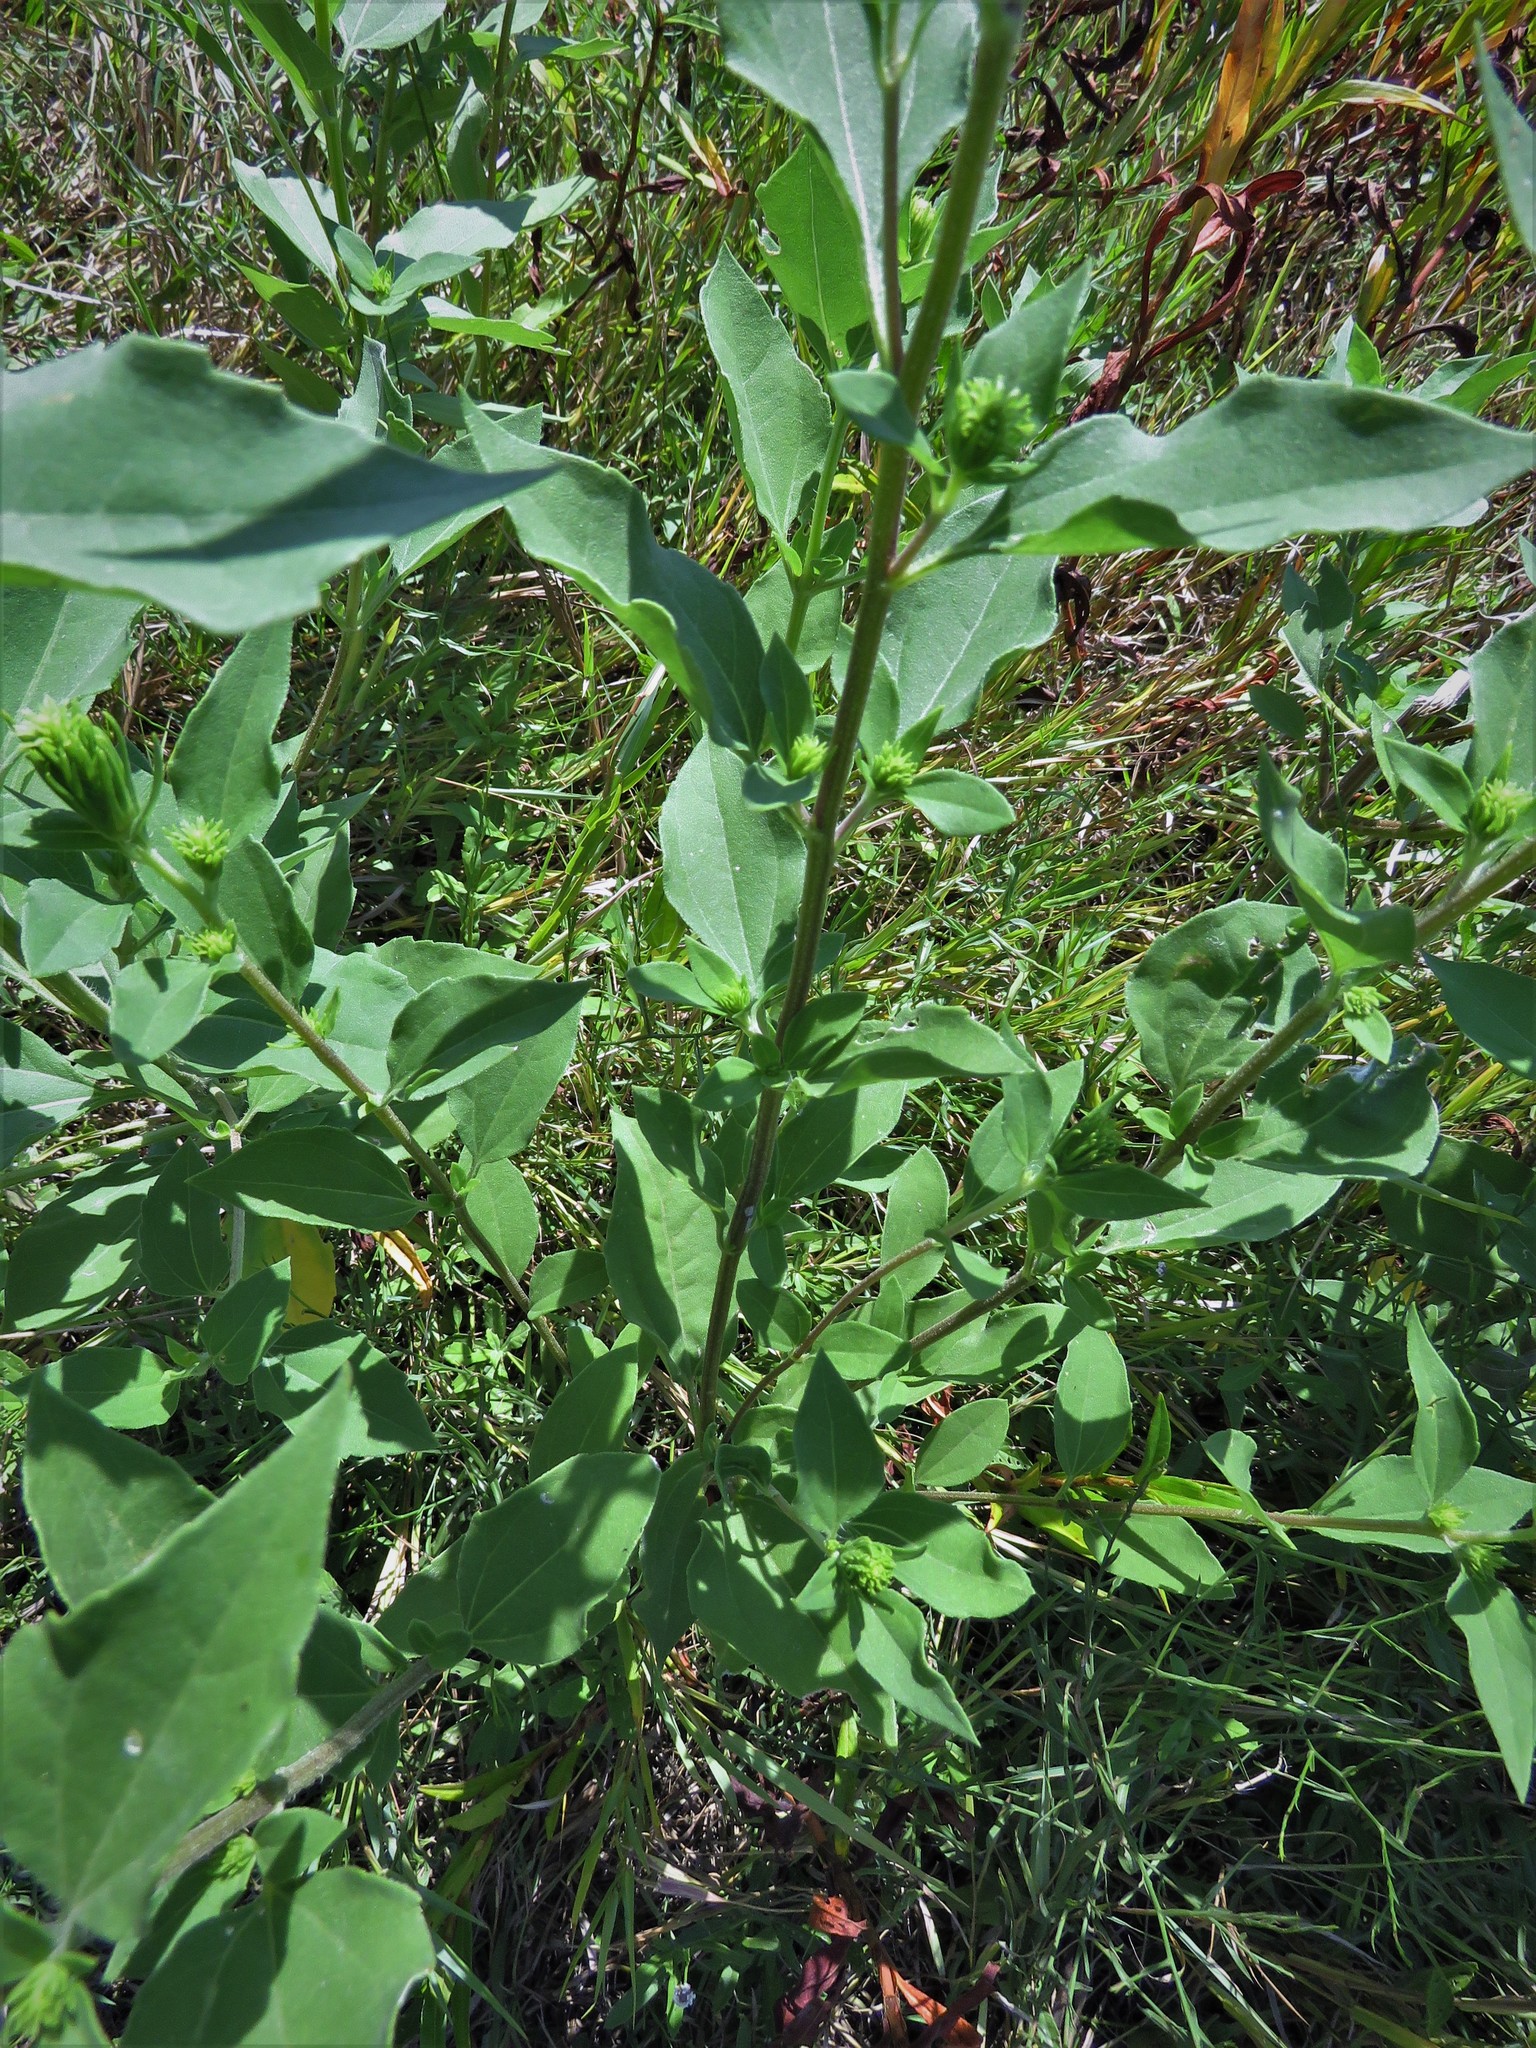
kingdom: Plantae
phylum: Tracheophyta
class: Magnoliopsida
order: Asterales
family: Asteraceae
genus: Iva
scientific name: Iva annua
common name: Marsh-elder
